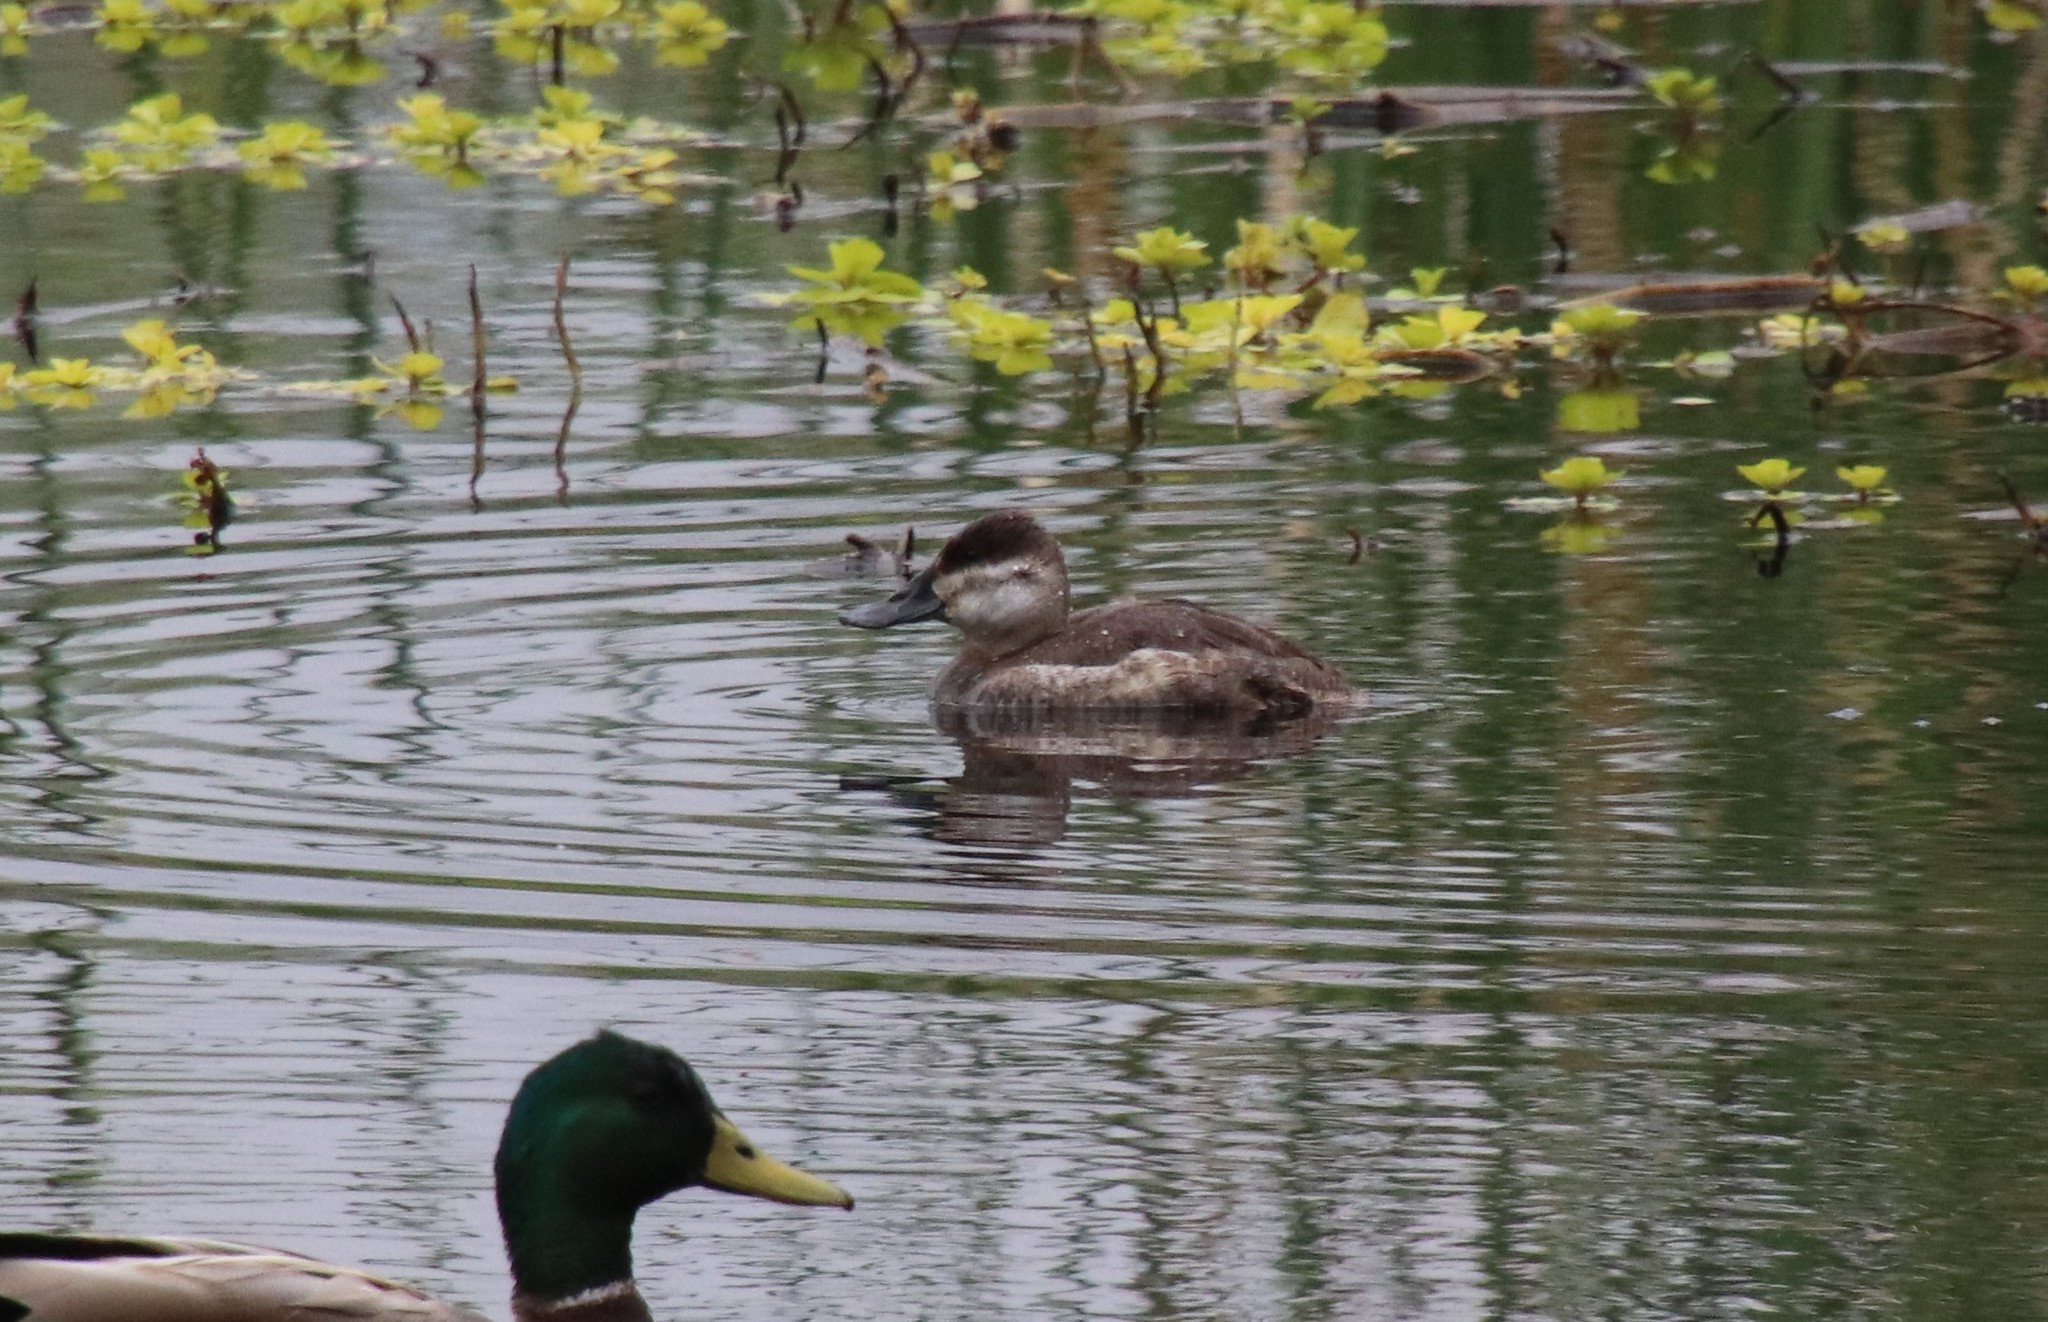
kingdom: Animalia
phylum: Chordata
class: Aves
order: Anseriformes
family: Anatidae
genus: Oxyura
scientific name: Oxyura jamaicensis
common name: Ruddy duck
